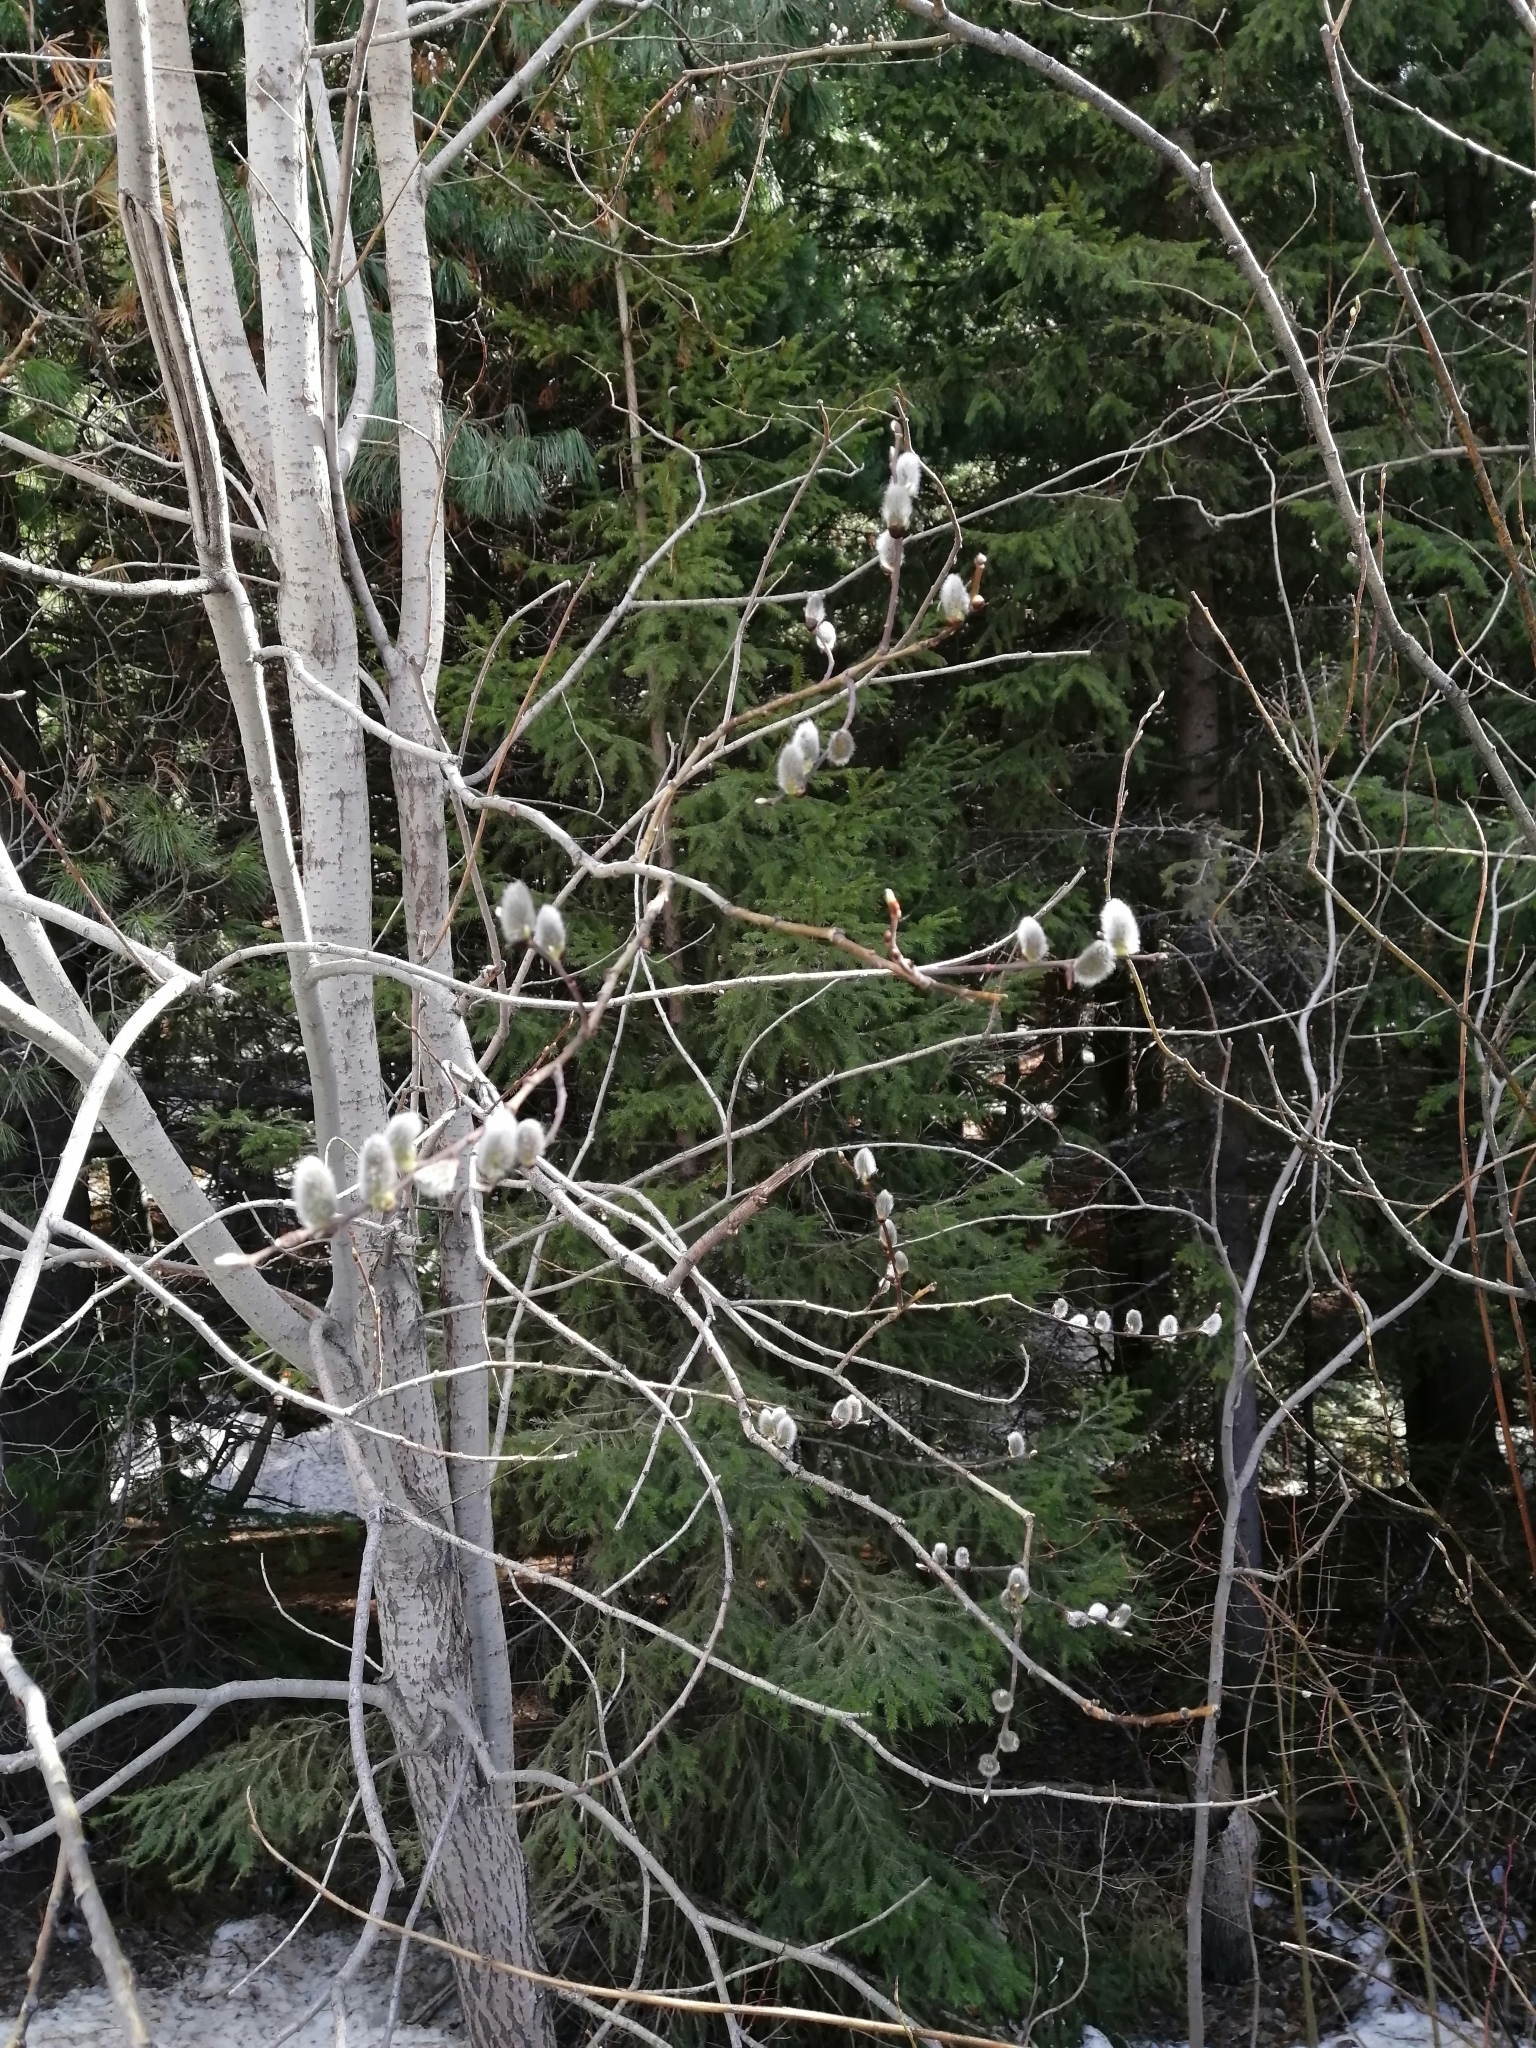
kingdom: Plantae
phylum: Tracheophyta
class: Magnoliopsida
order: Malpighiales
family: Salicaceae
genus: Salix
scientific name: Salix caprea
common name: Goat willow
